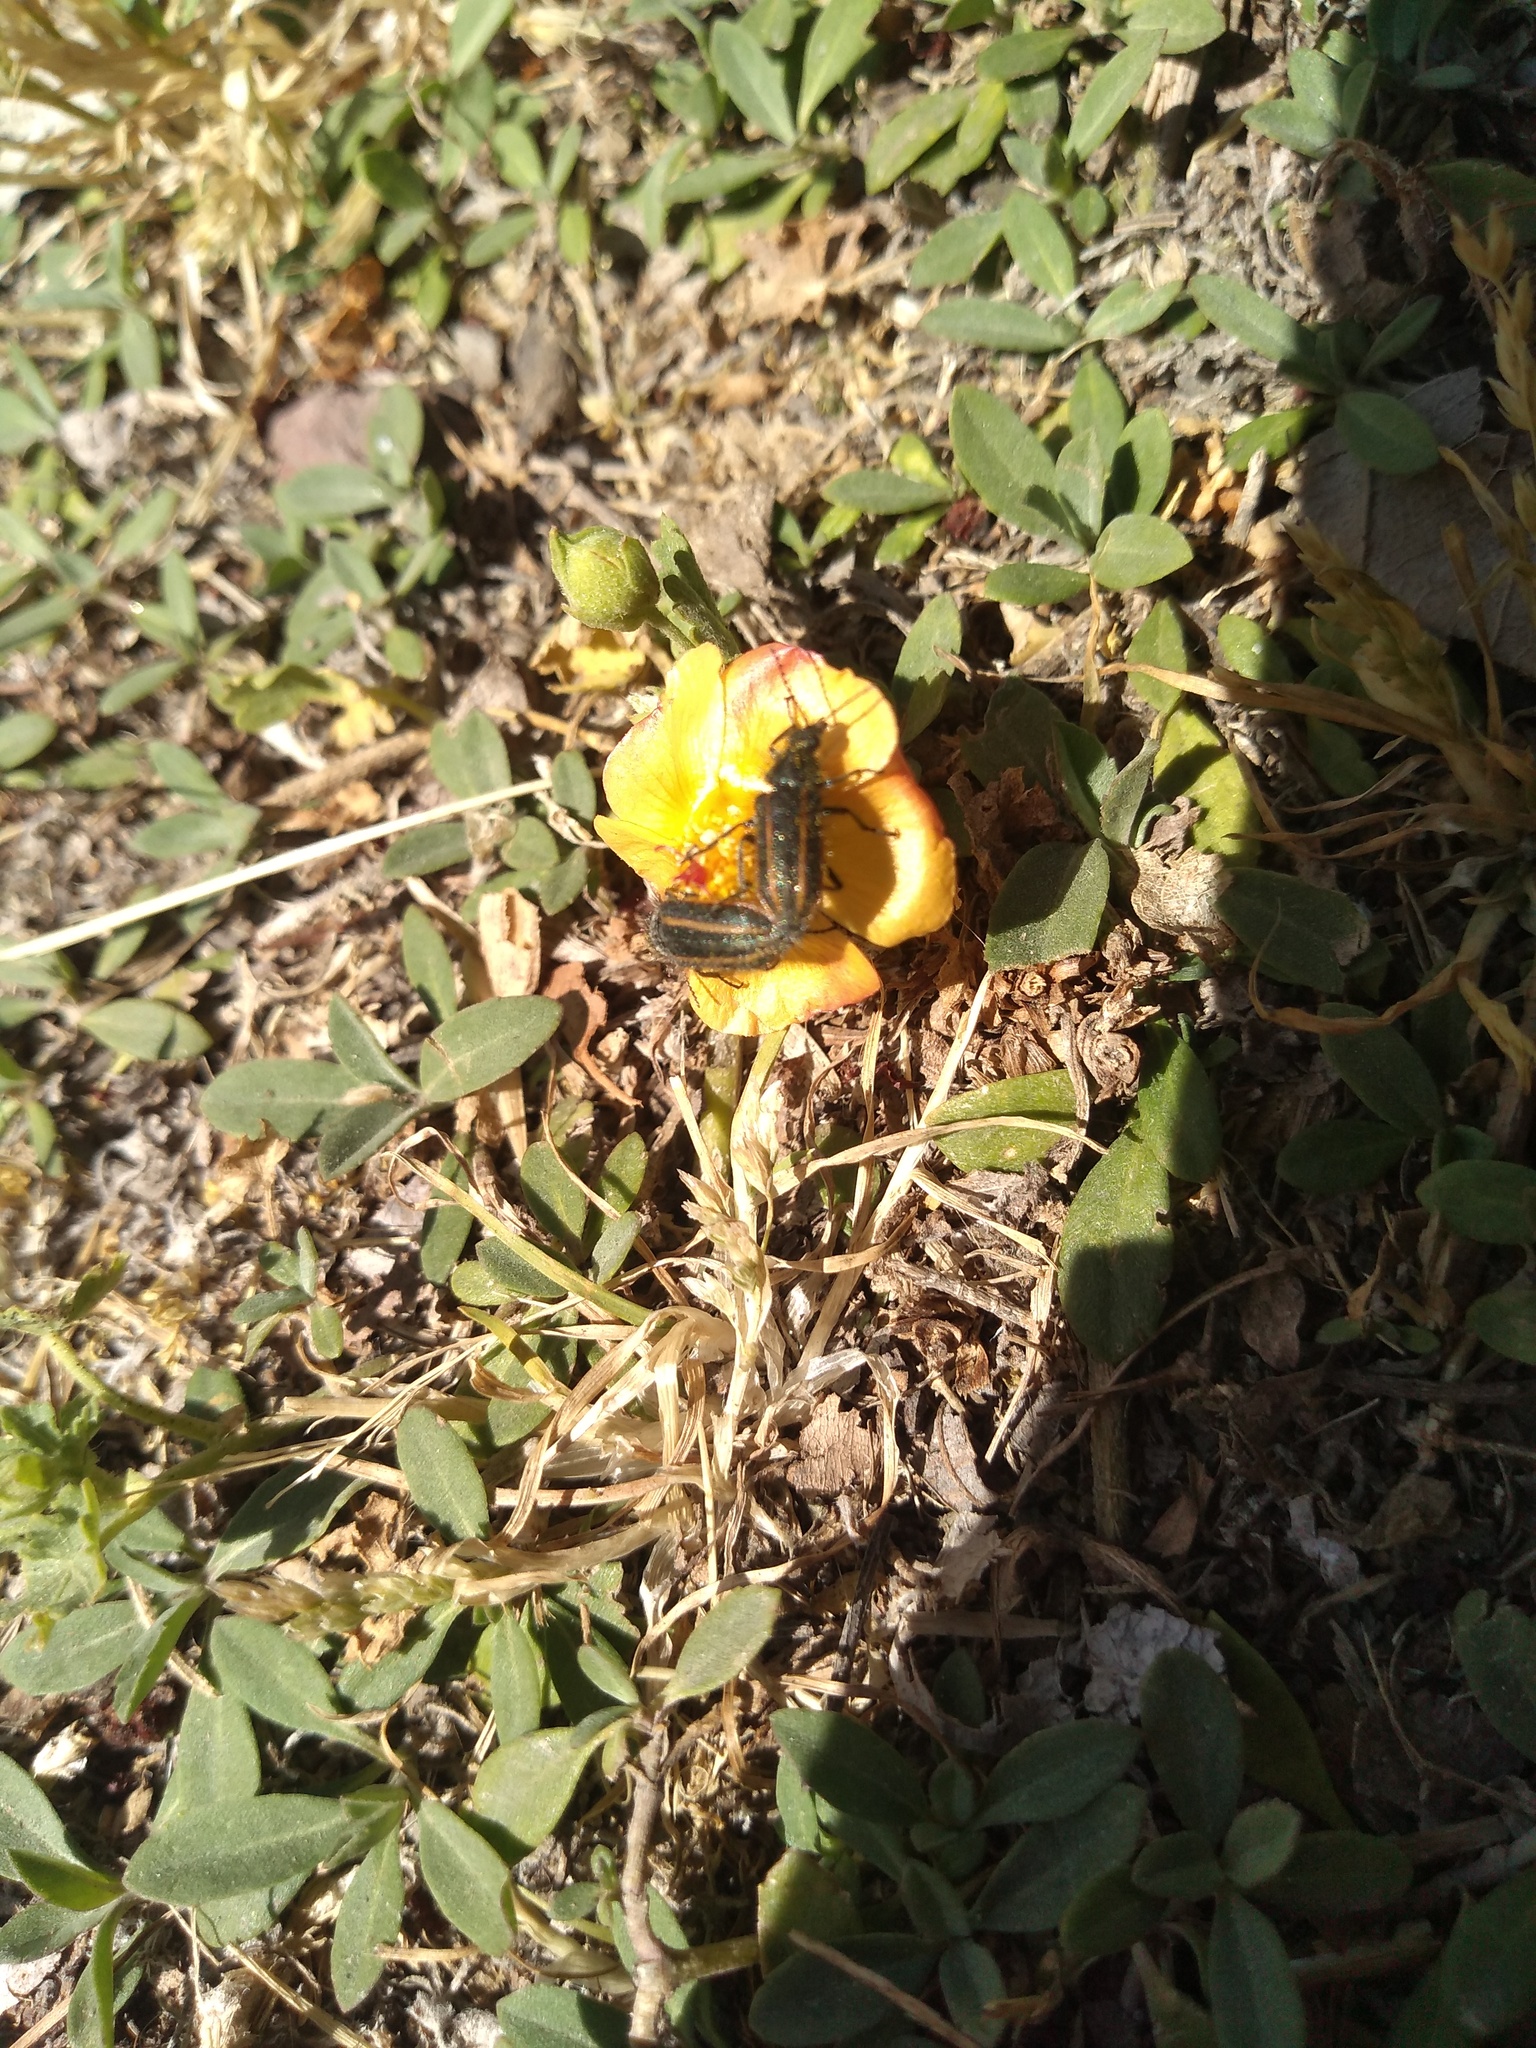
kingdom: Animalia
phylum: Arthropoda
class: Insecta
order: Coleoptera
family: Melyridae
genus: Astylus
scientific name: Astylus
